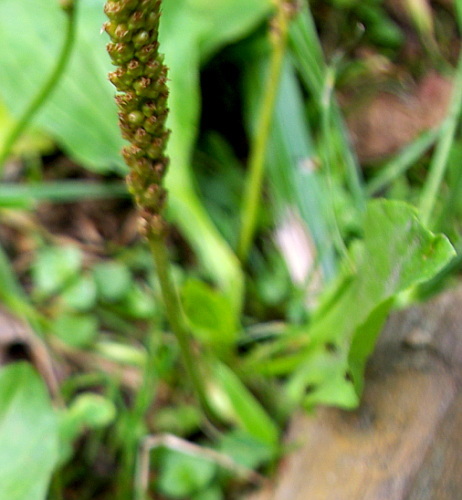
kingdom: Plantae
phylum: Tracheophyta
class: Magnoliopsida
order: Lamiales
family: Plantaginaceae
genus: Plantago
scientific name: Plantago major
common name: Common plantain
